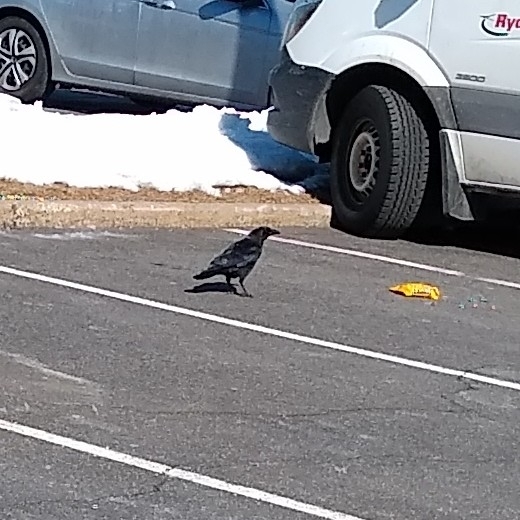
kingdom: Animalia
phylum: Chordata
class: Aves
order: Passeriformes
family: Corvidae
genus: Corvus
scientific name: Corvus brachyrhynchos
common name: American crow
